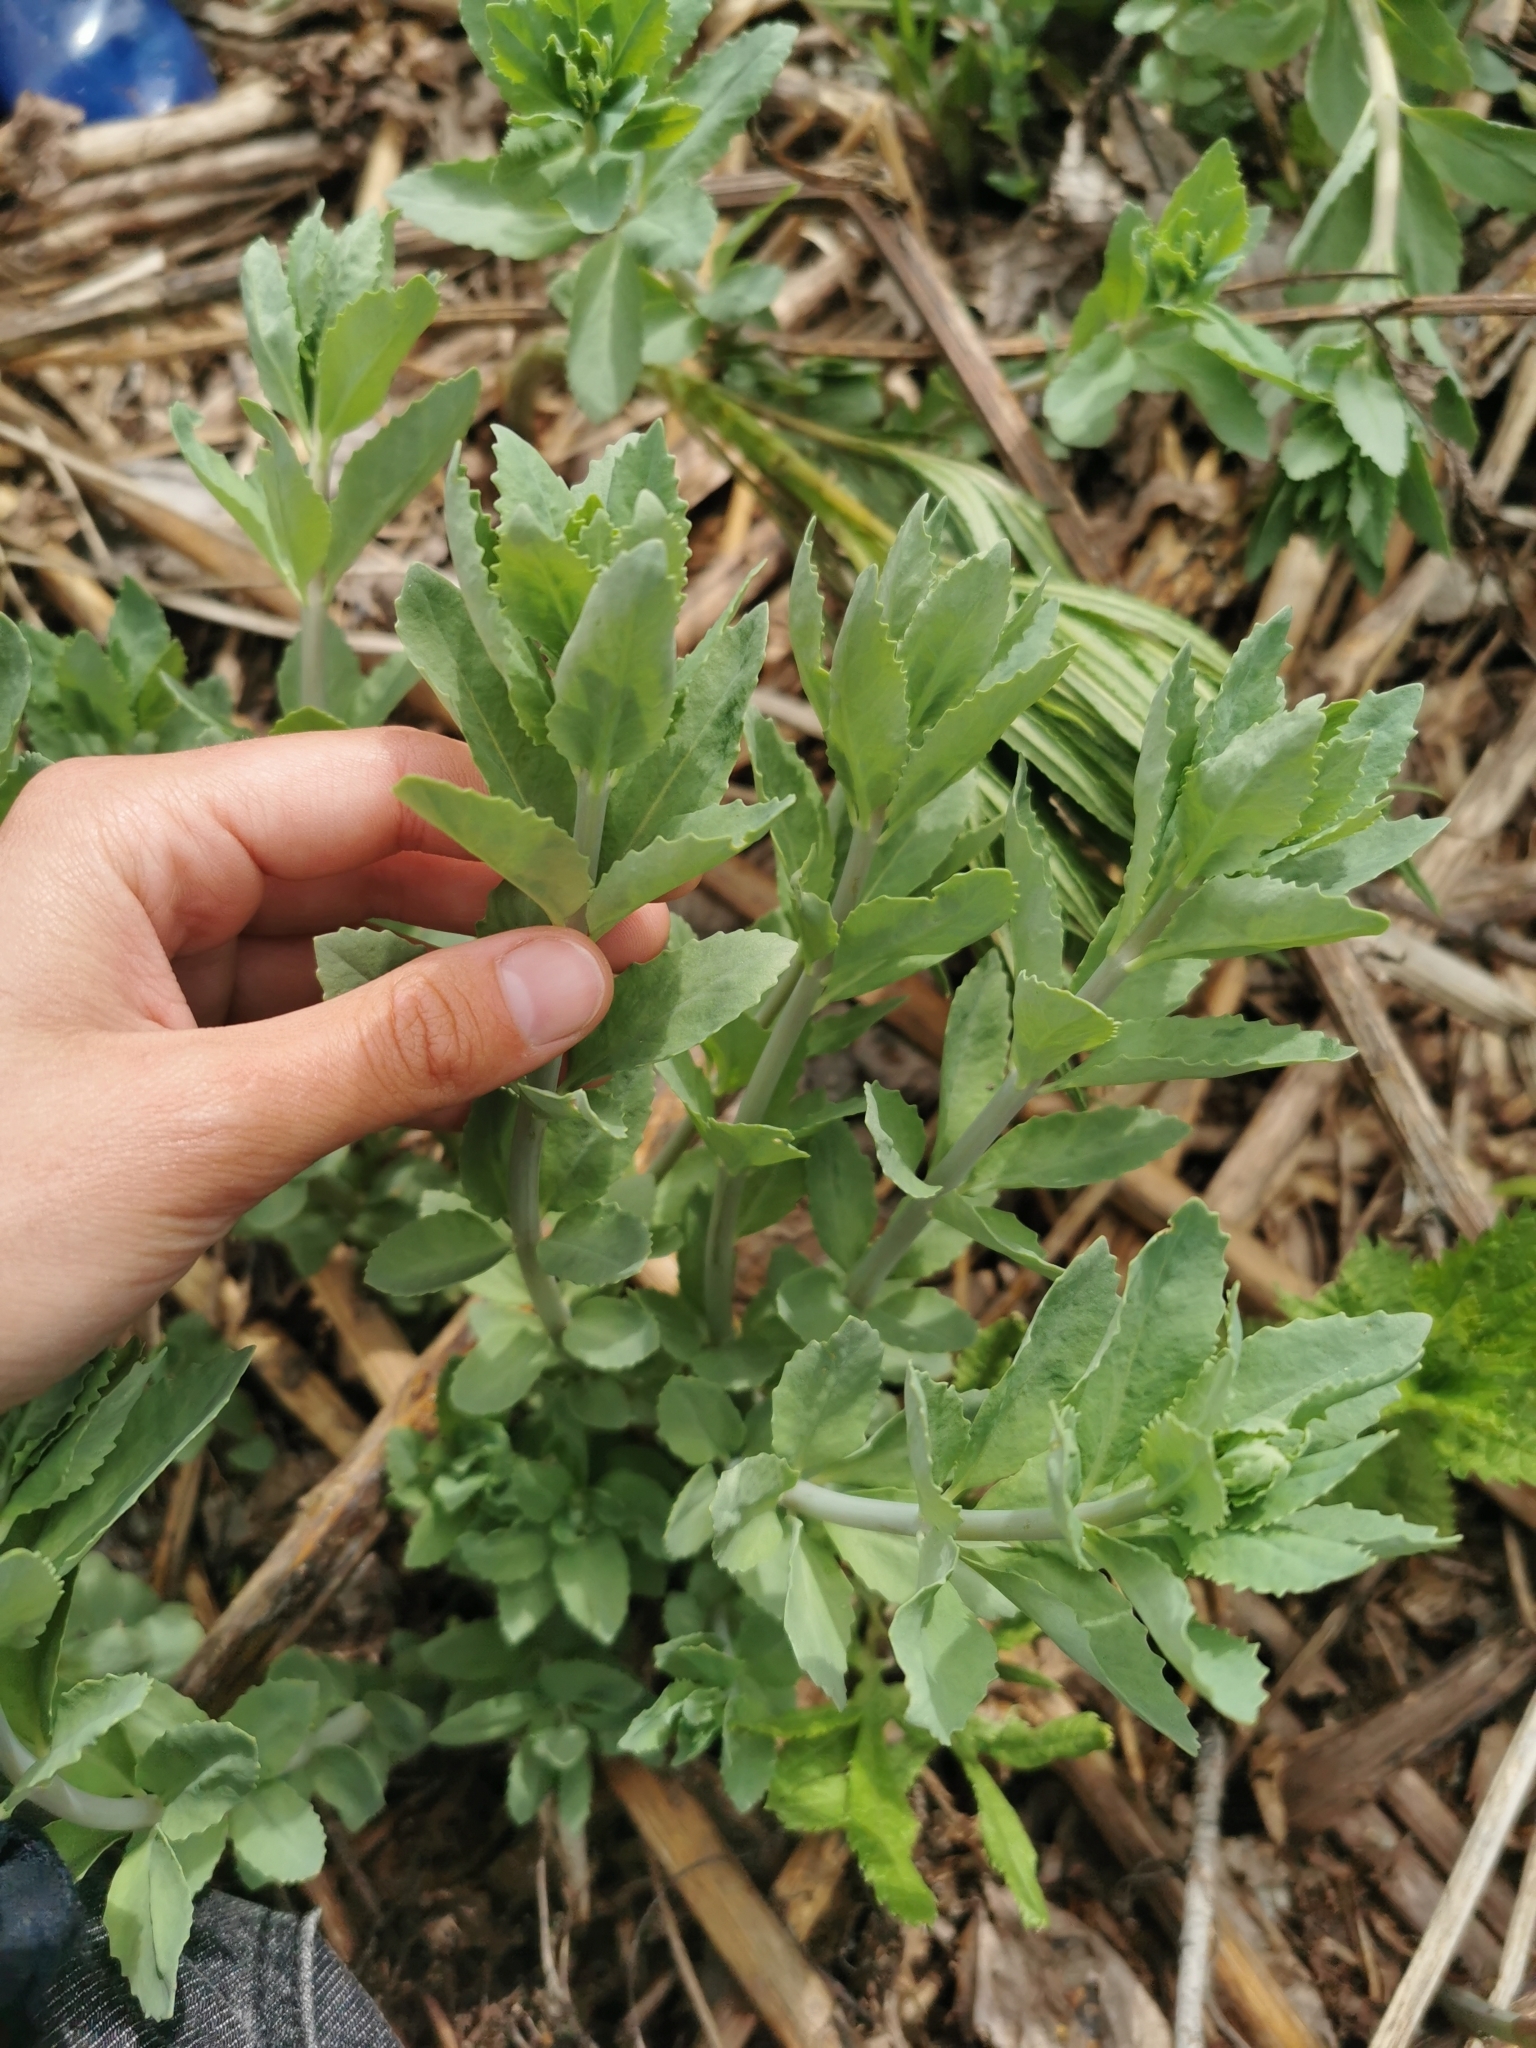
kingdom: Plantae
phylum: Tracheophyta
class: Magnoliopsida
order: Saxifragales
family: Crassulaceae
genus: Hylotelephium
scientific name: Hylotelephium verticillatum
